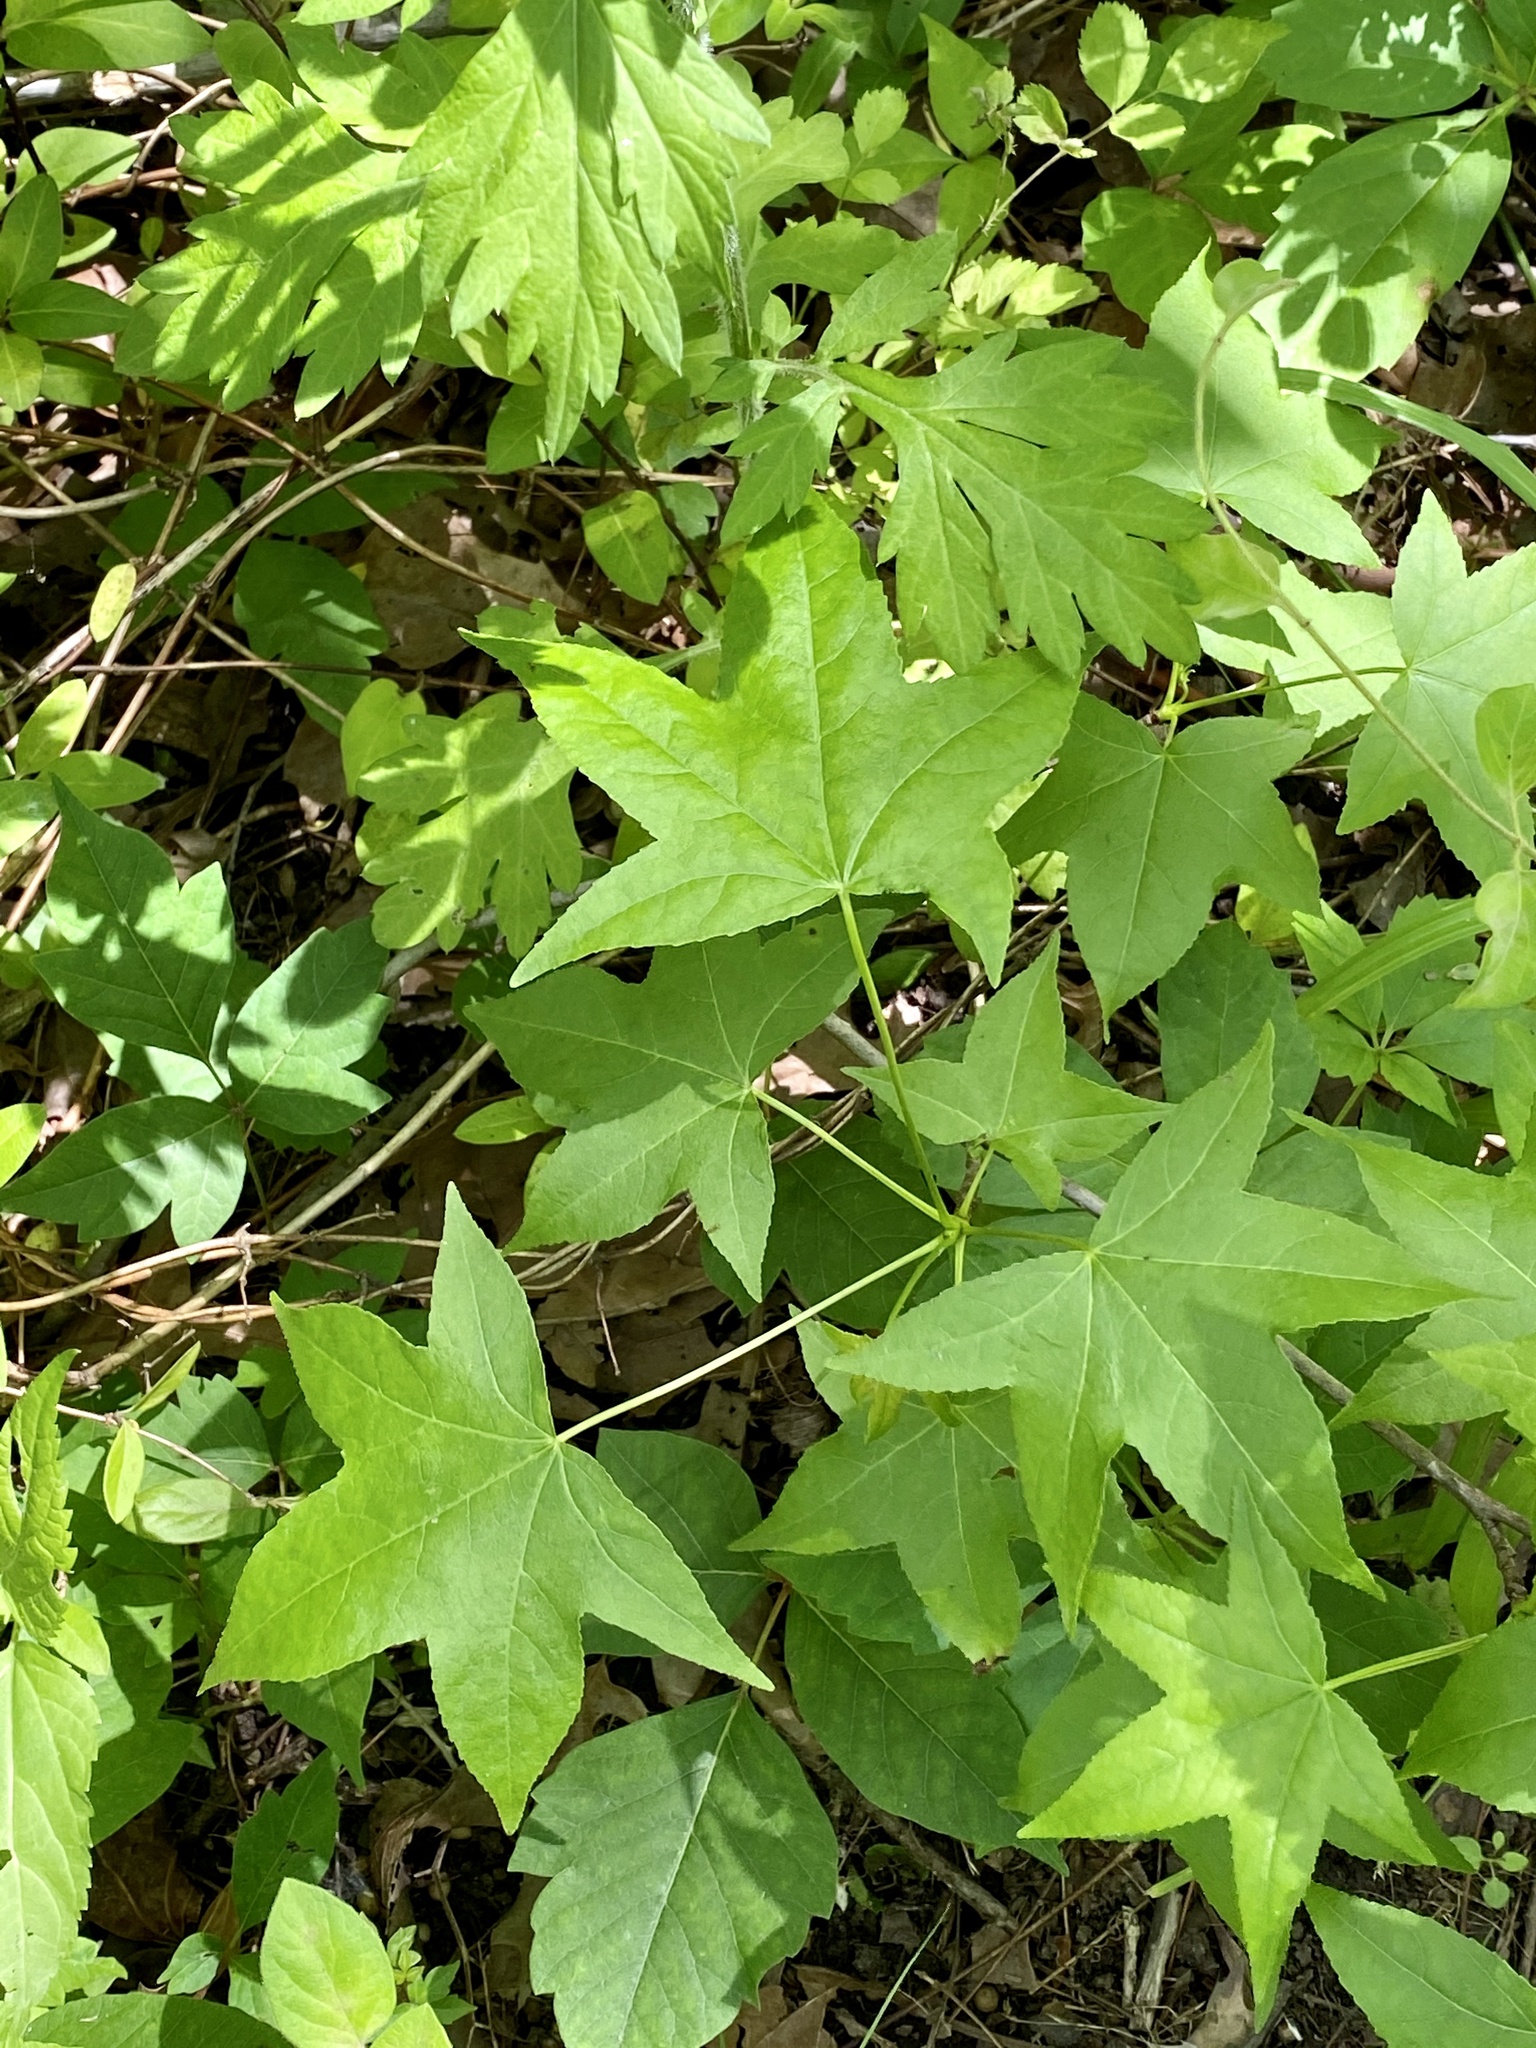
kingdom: Plantae
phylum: Tracheophyta
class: Magnoliopsida
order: Saxifragales
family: Altingiaceae
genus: Liquidambar
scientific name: Liquidambar styraciflua
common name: Sweet gum
